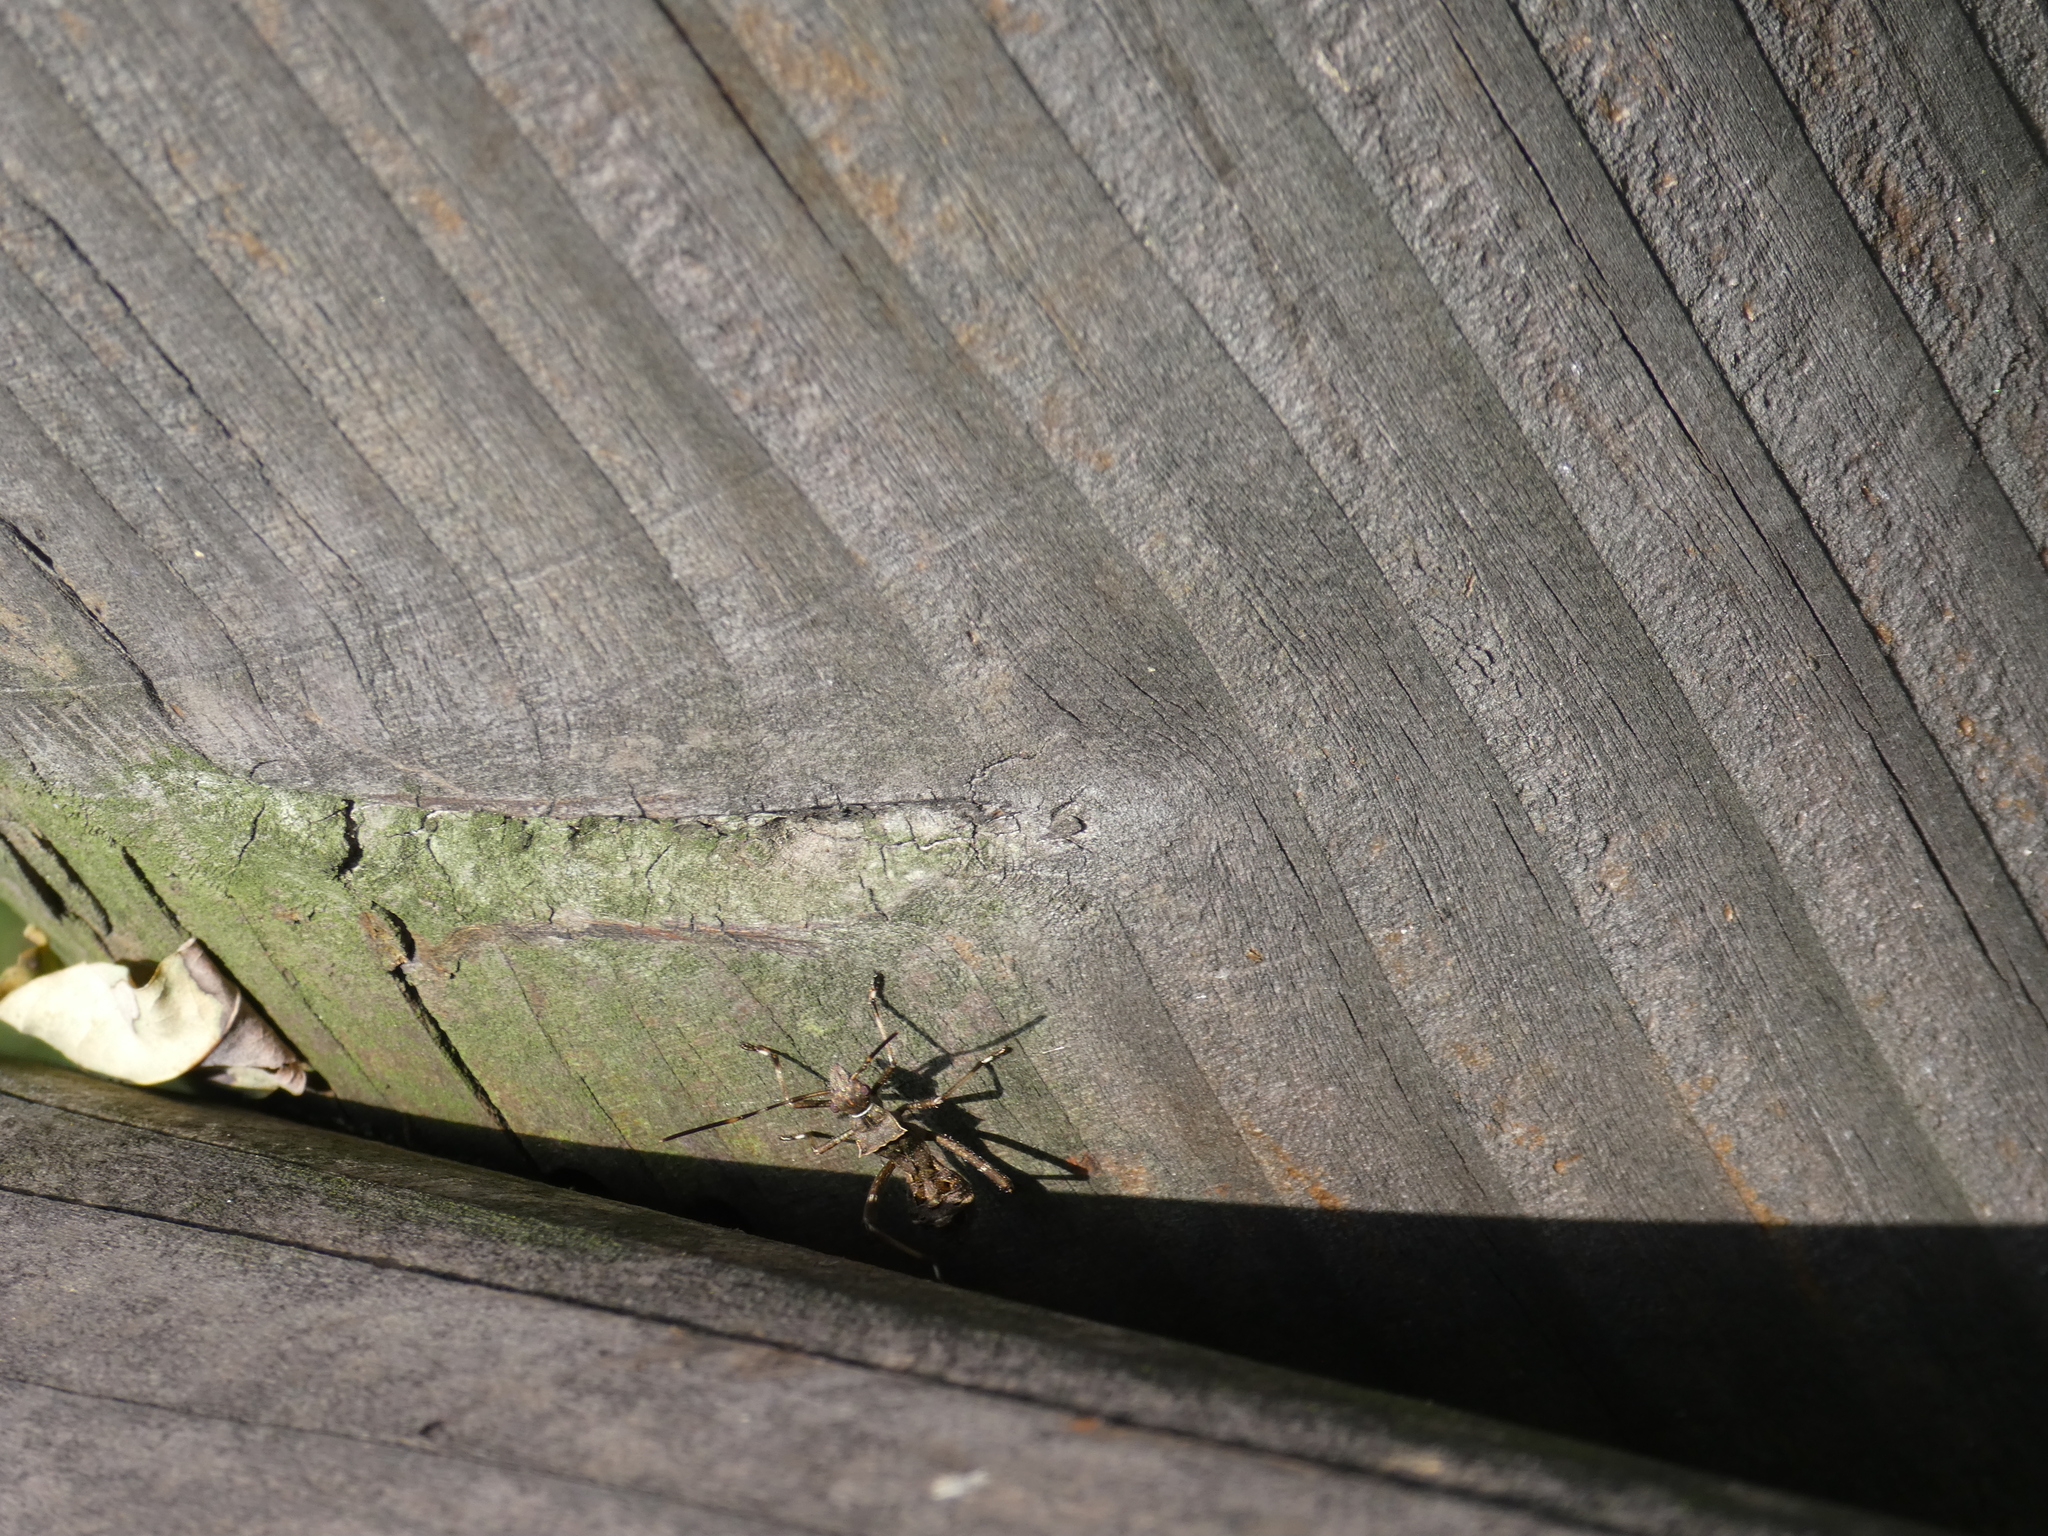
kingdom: Animalia
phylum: Arthropoda
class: Insecta
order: Hemiptera
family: Alydidae
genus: Riptortus
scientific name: Riptortus pedestris
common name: Bean bug
